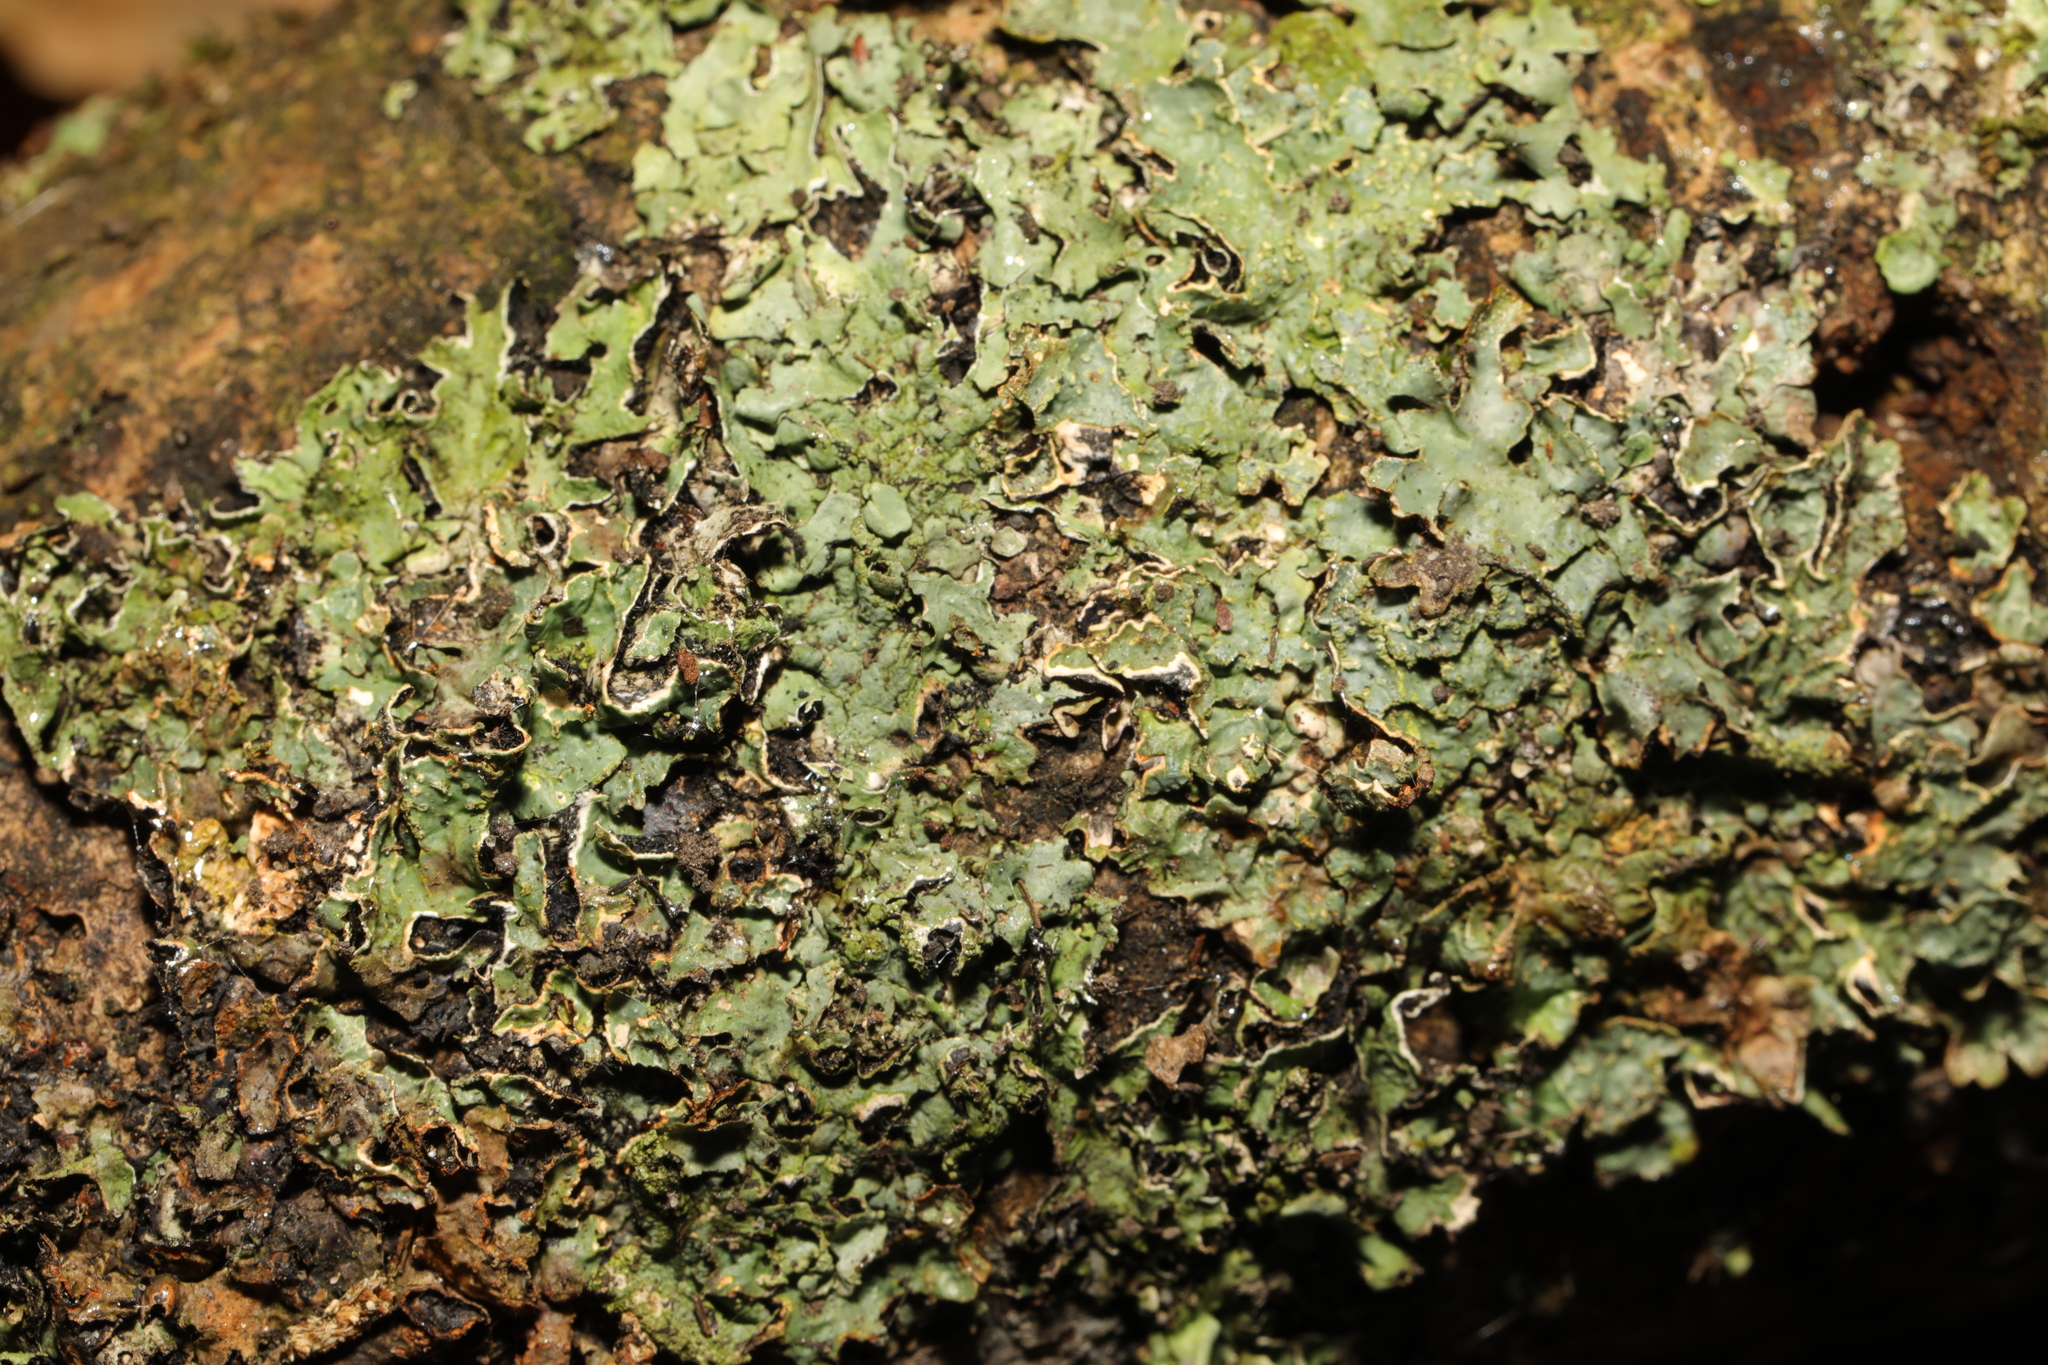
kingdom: Fungi
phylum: Ascomycota
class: Lecanoromycetes
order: Lecanorales
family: Parmeliaceae
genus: Parmelia
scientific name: Parmelia sulcata
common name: Netted shield lichen
